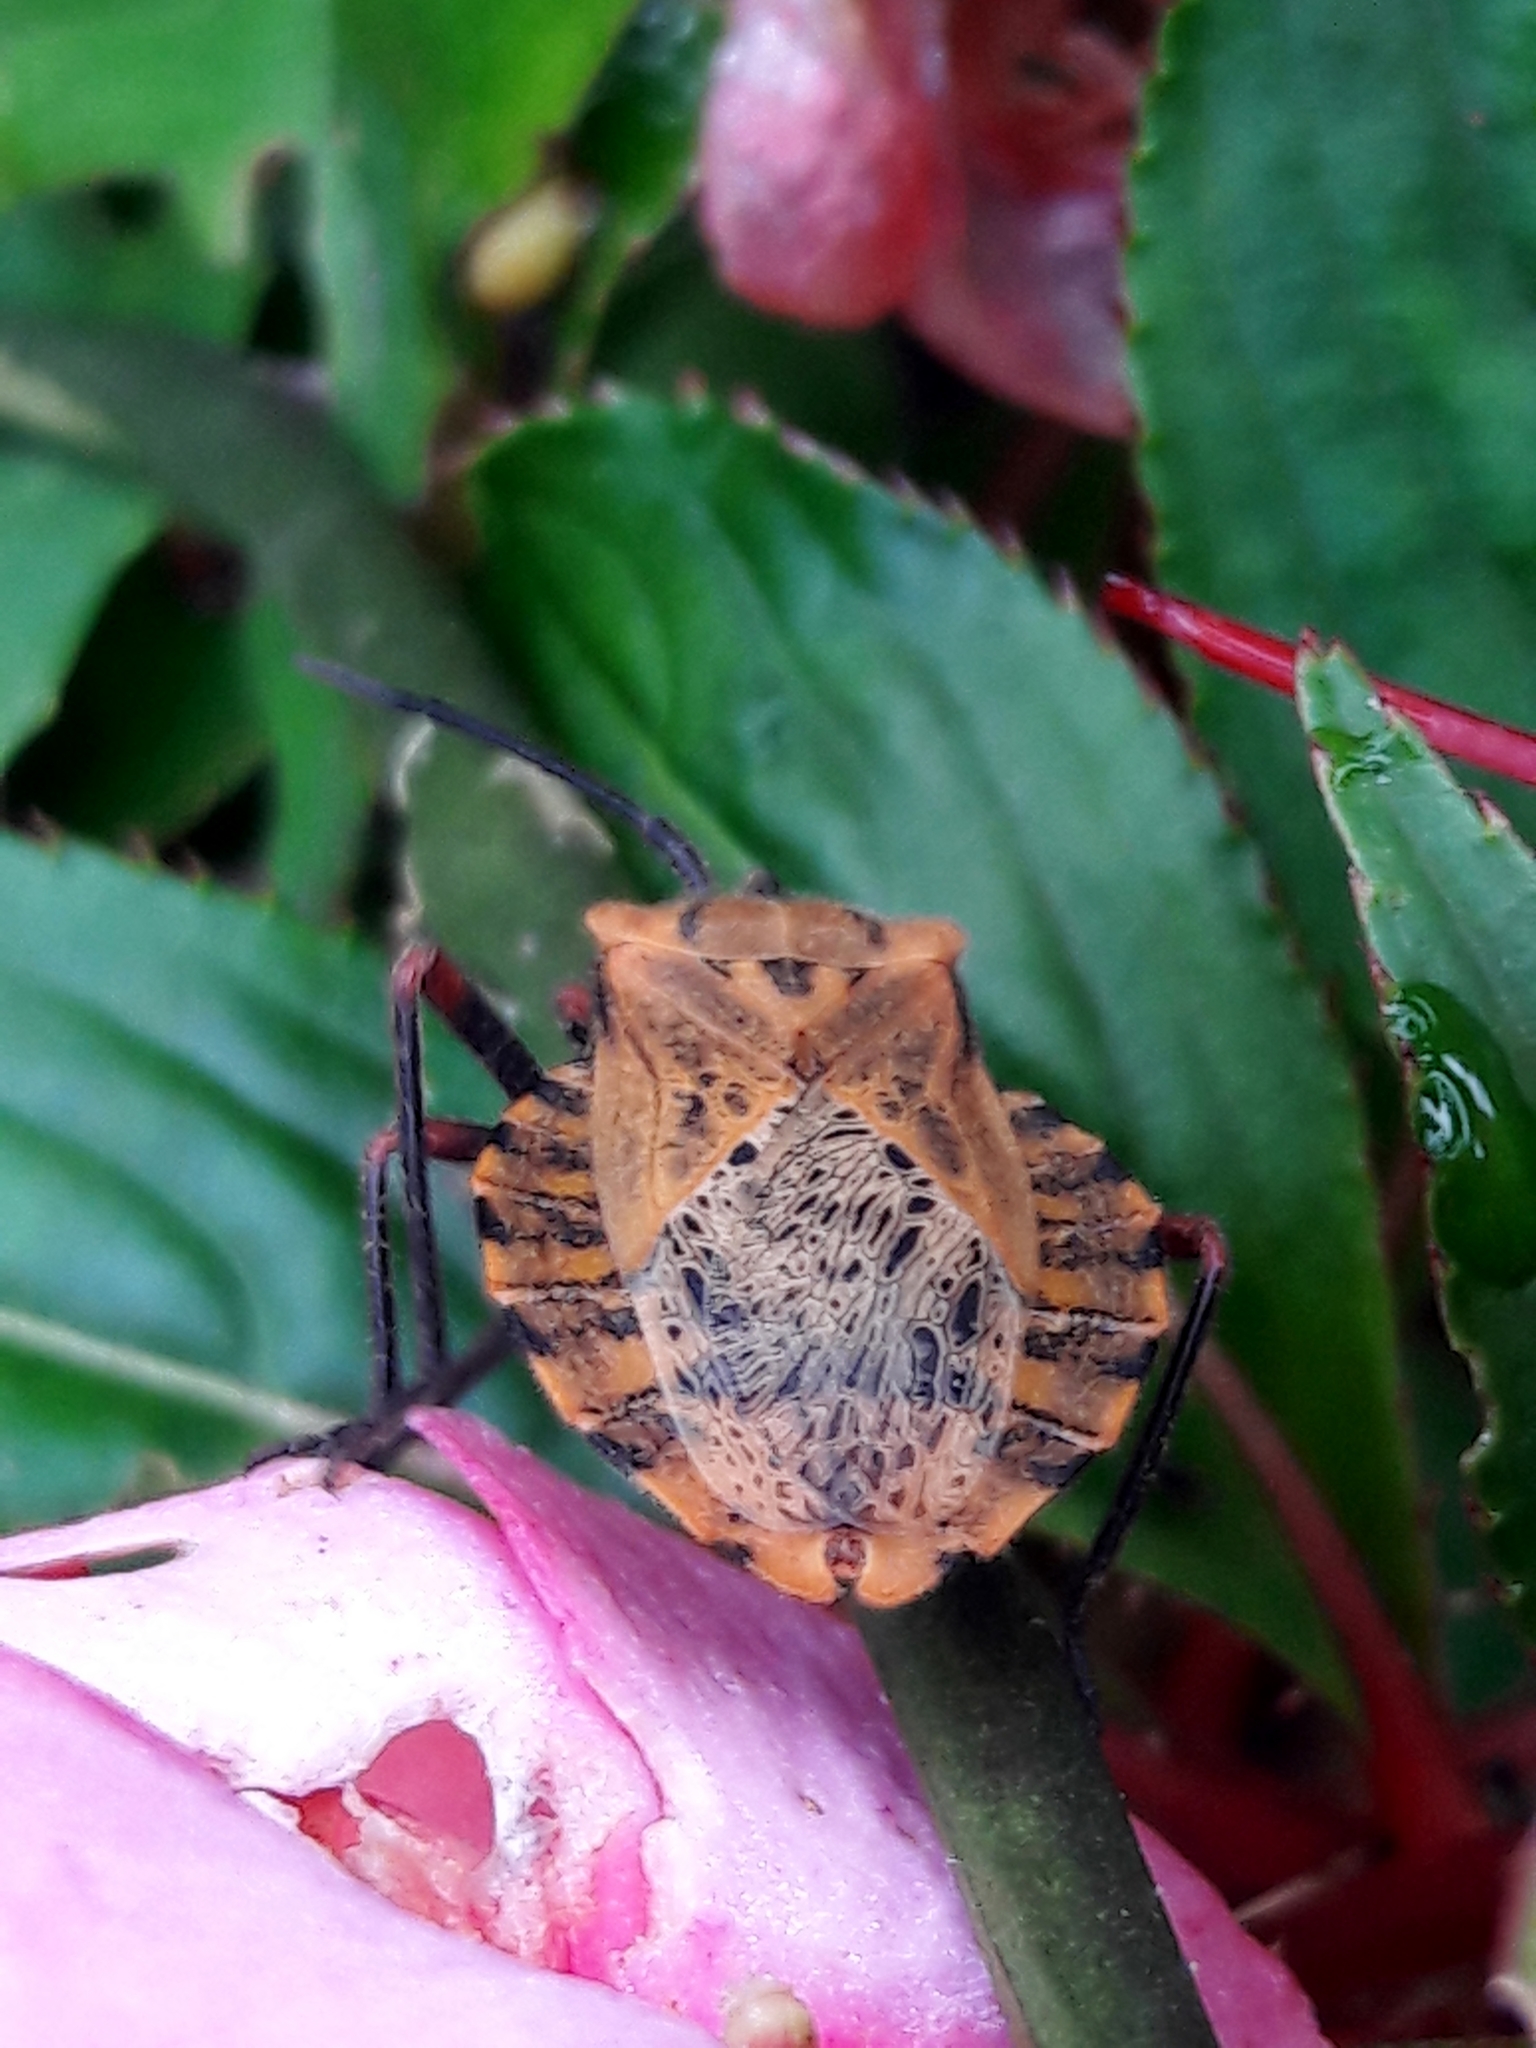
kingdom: Animalia
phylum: Arthropoda
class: Insecta
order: Hemiptera
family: Coreidae
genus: Spartocera
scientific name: Spartocera fusca
